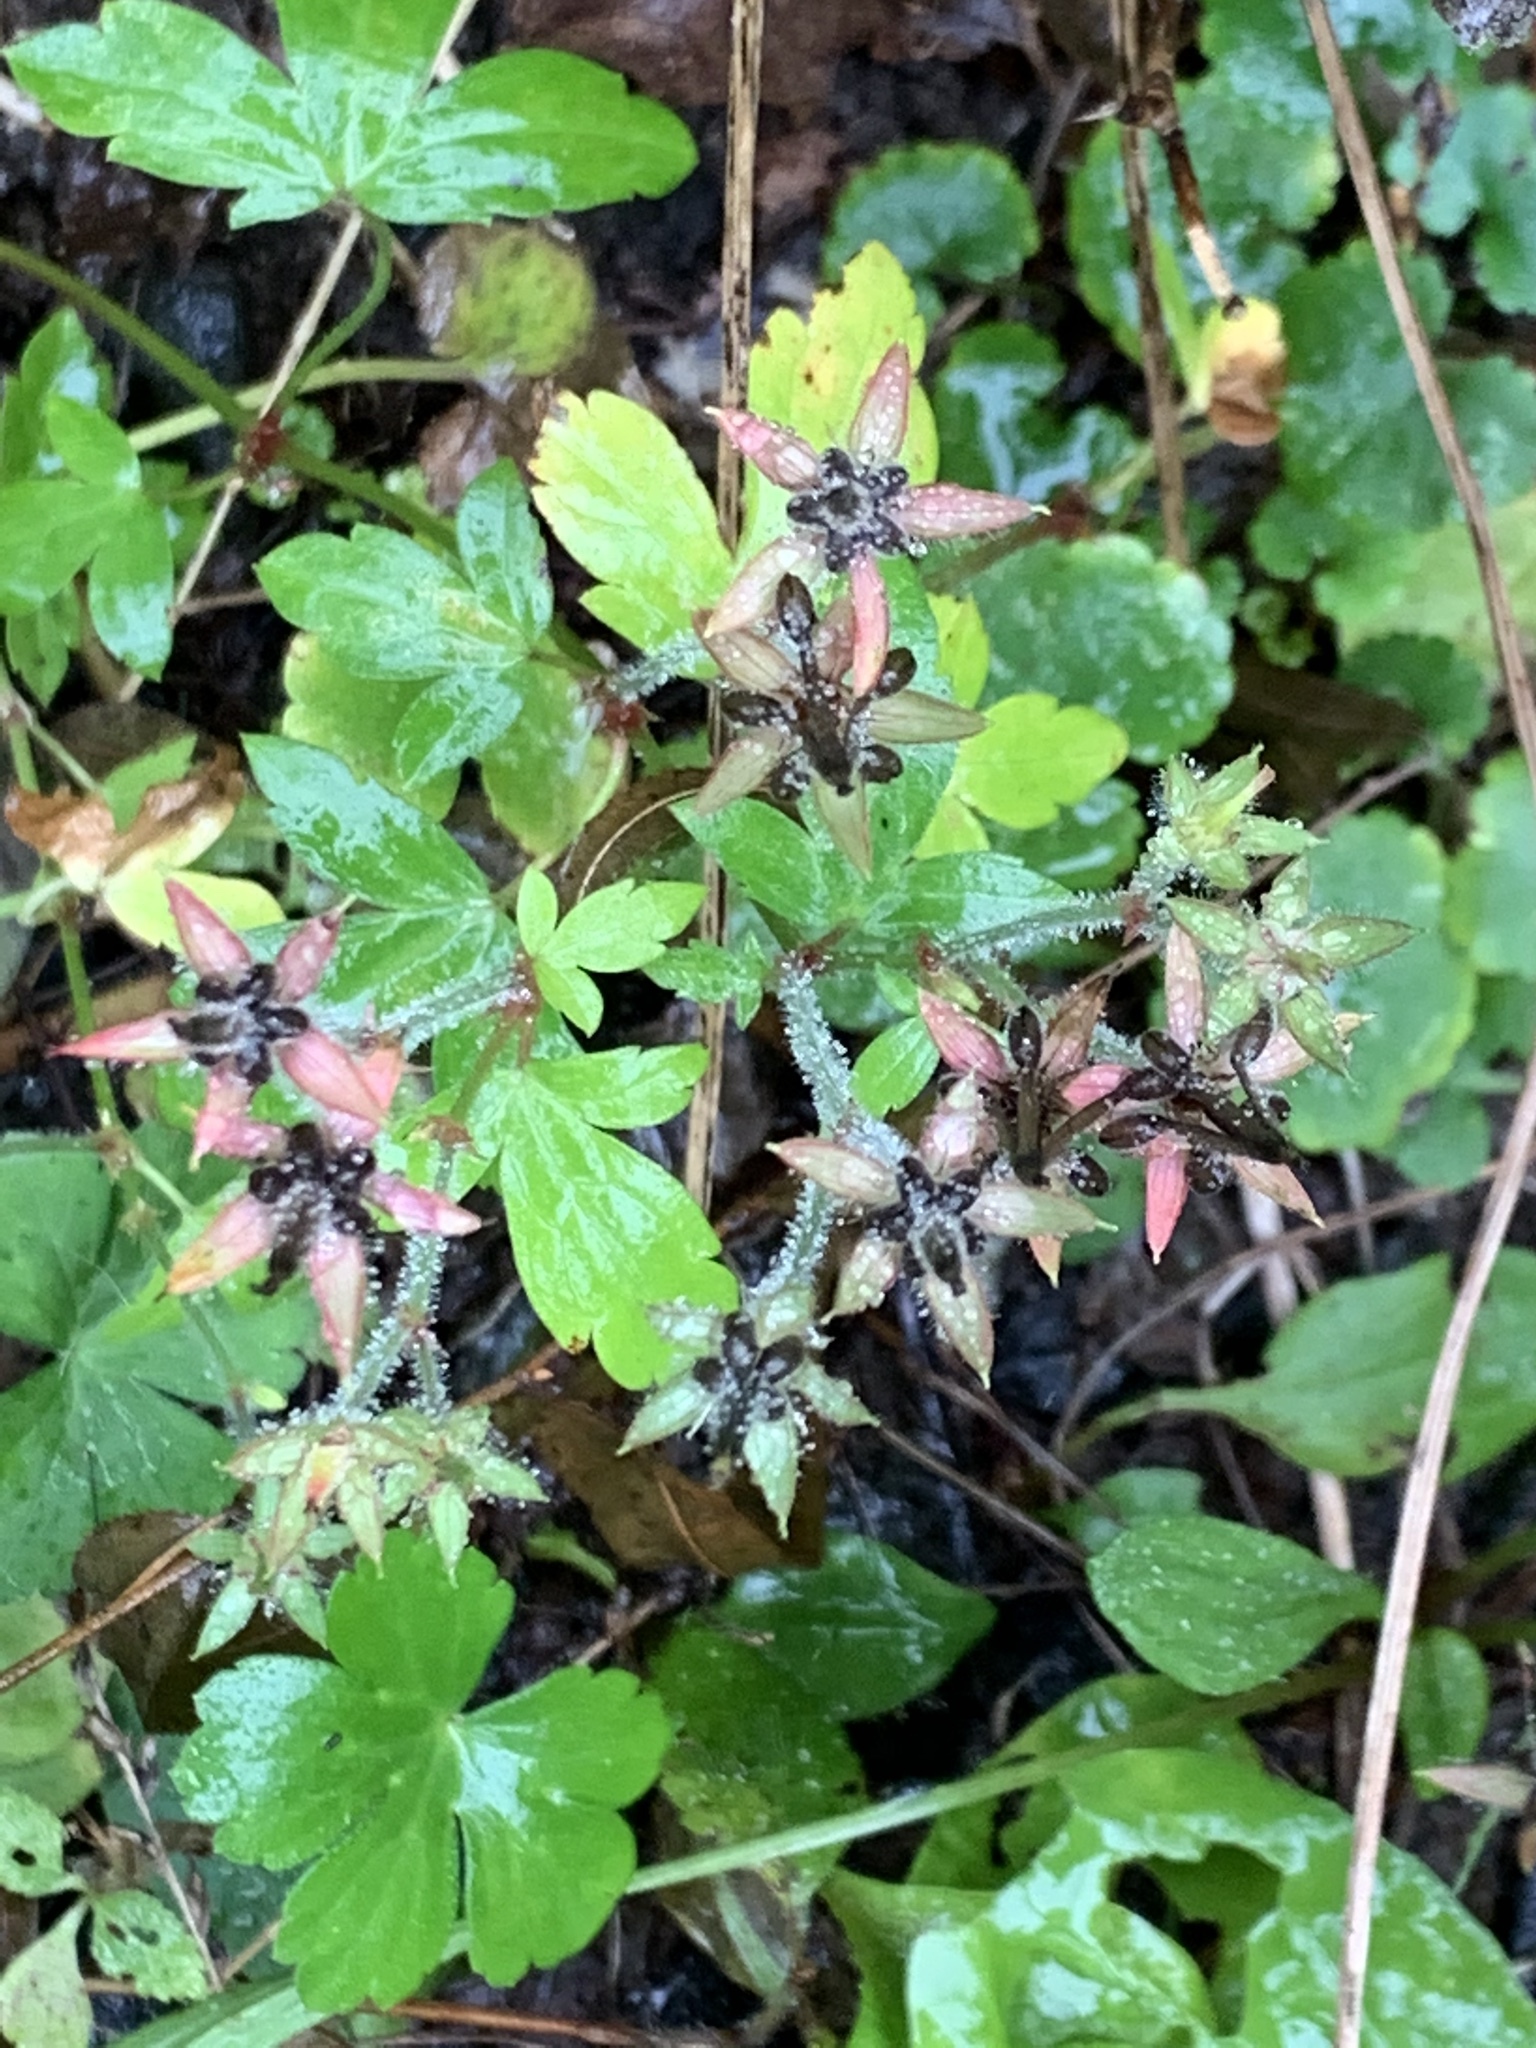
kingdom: Plantae
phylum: Tracheophyta
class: Magnoliopsida
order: Geraniales
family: Geraniaceae
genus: Geranium
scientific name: Geranium thunbergii
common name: Dewdrop crane's-bill
